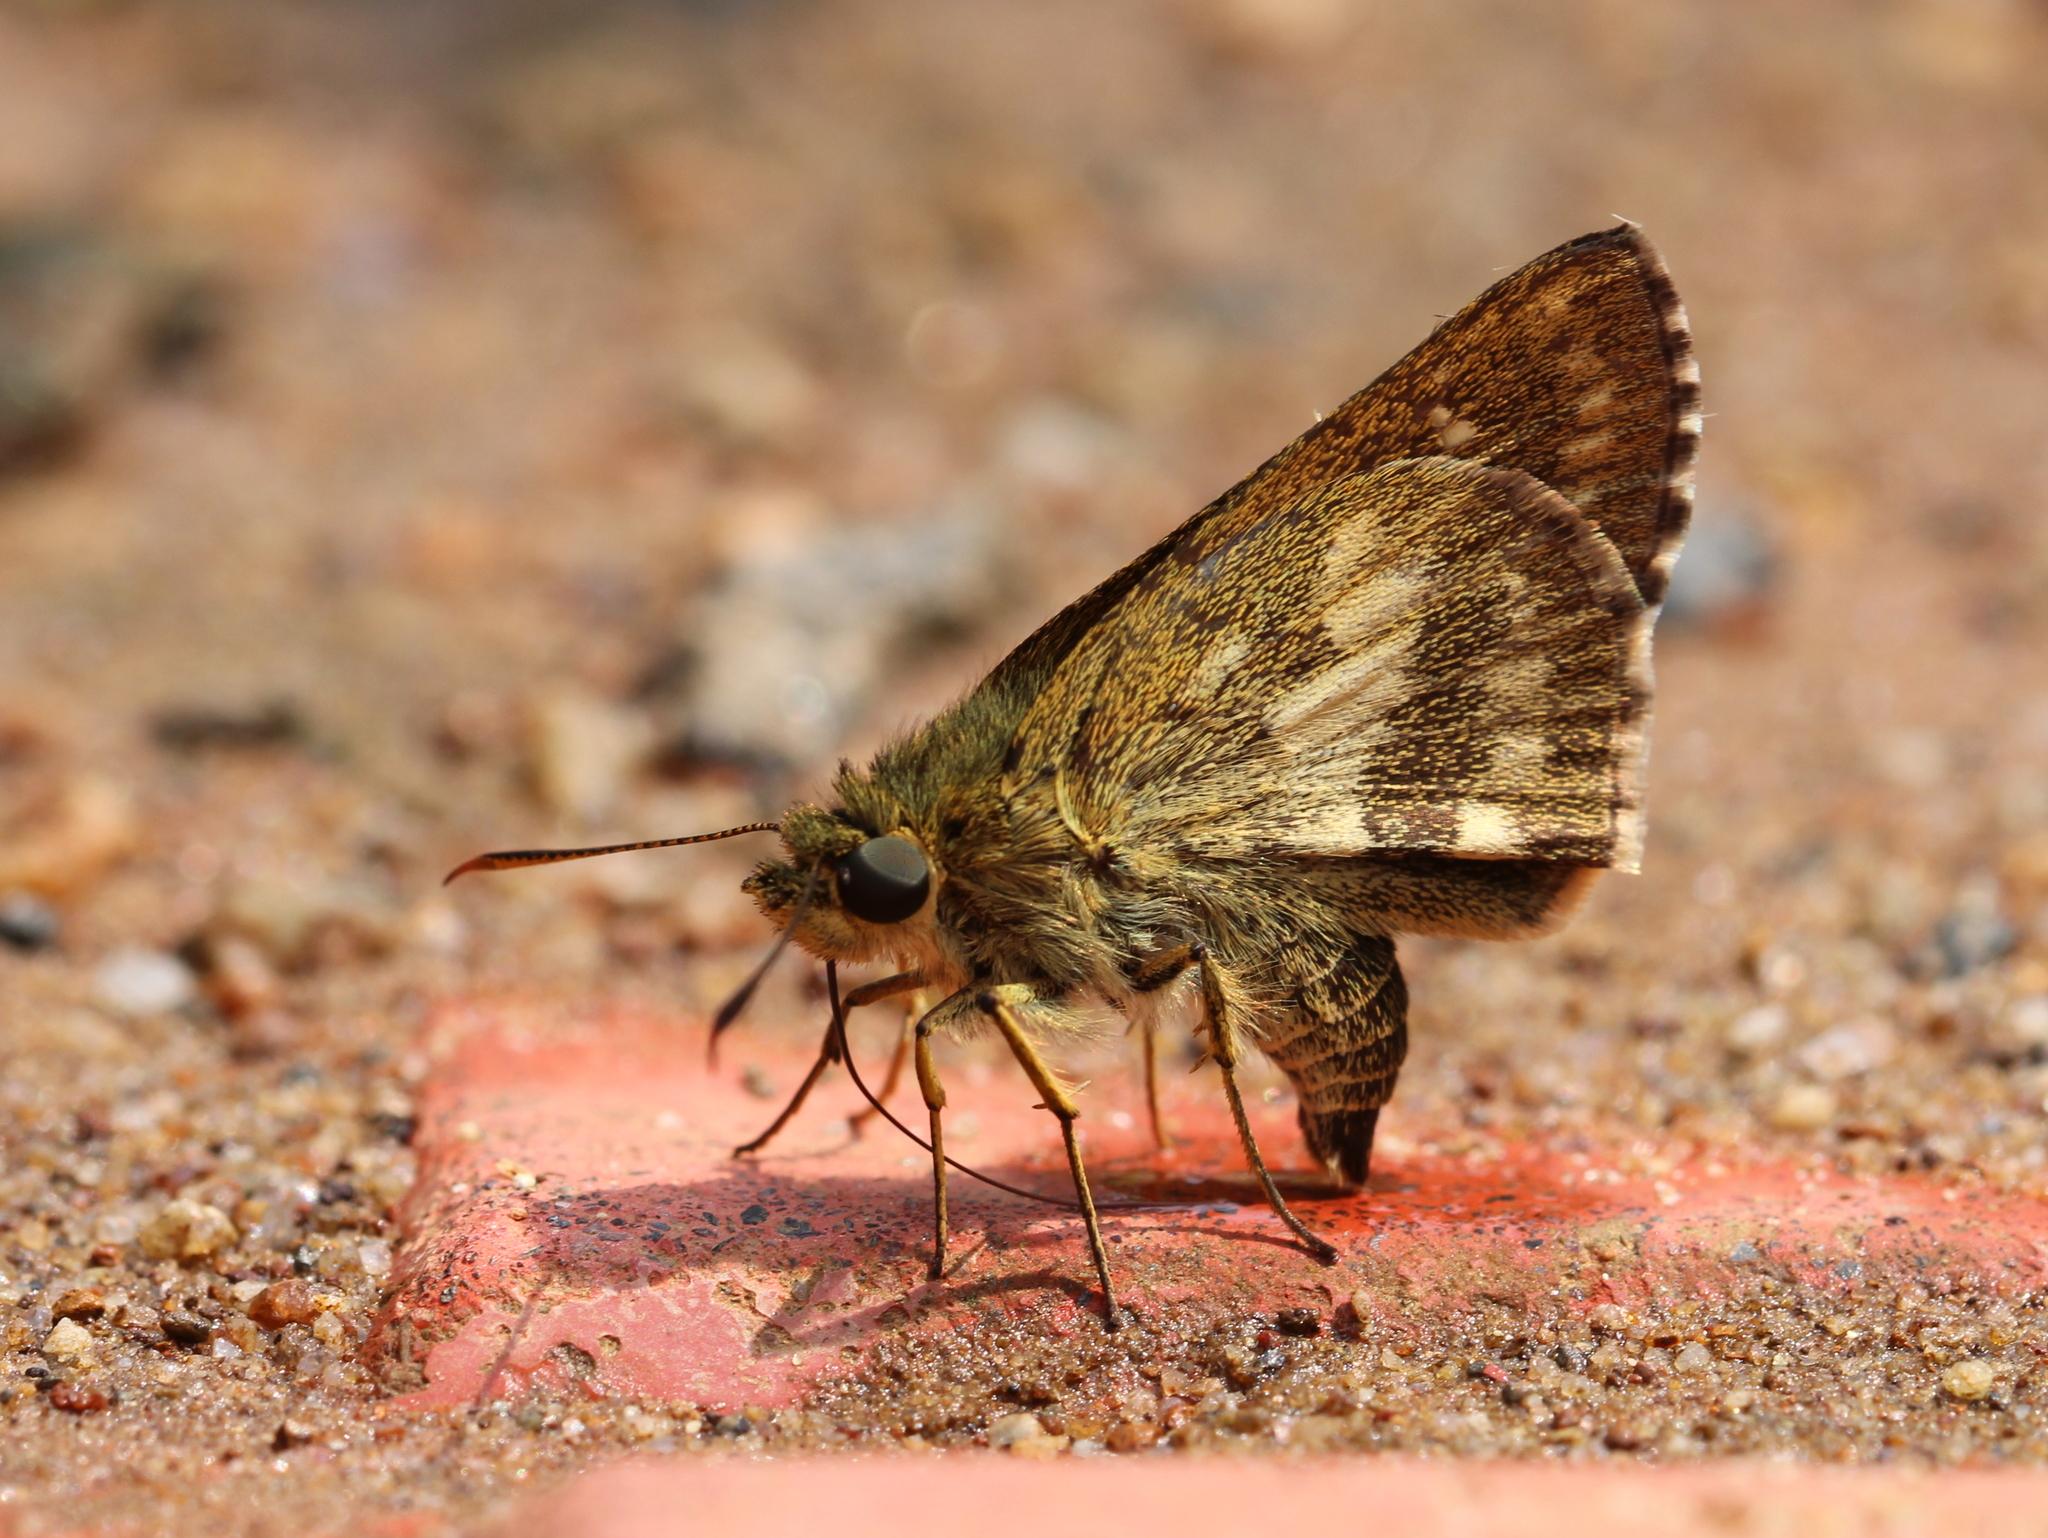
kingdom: Animalia
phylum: Arthropoda
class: Insecta
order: Lepidoptera
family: Hesperiidae
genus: Halpe
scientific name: Halpe homolea
